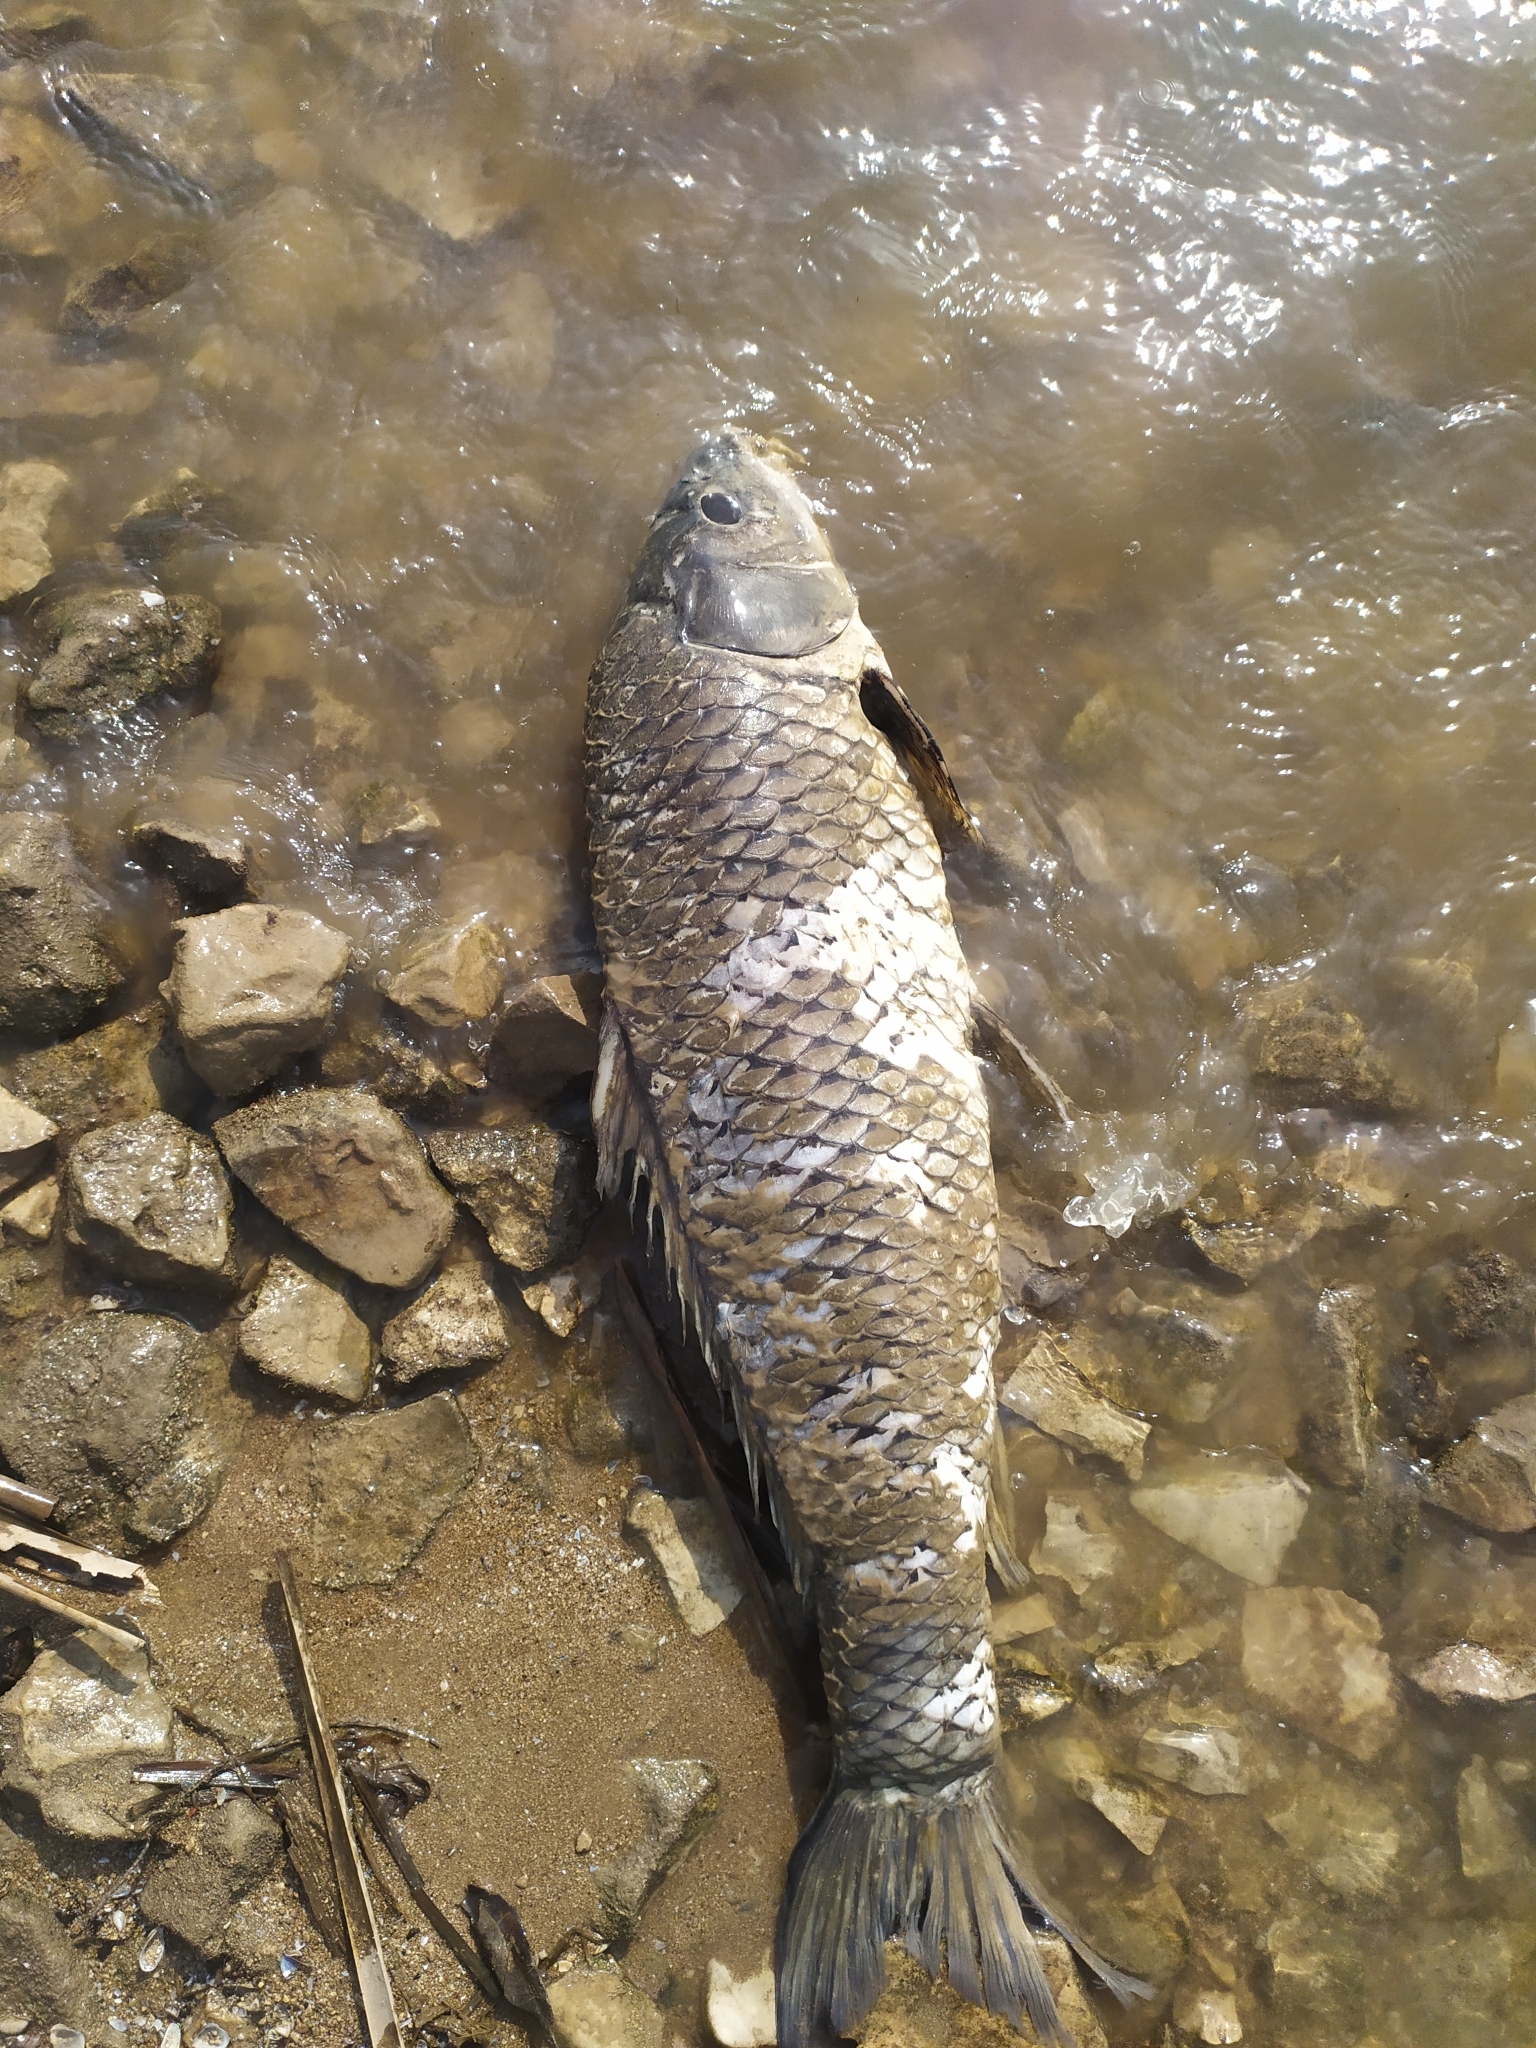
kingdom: Animalia
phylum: Chordata
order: Cypriniformes
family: Cyprinidae
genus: Cyprinus
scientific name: Cyprinus carpio
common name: Common carp
